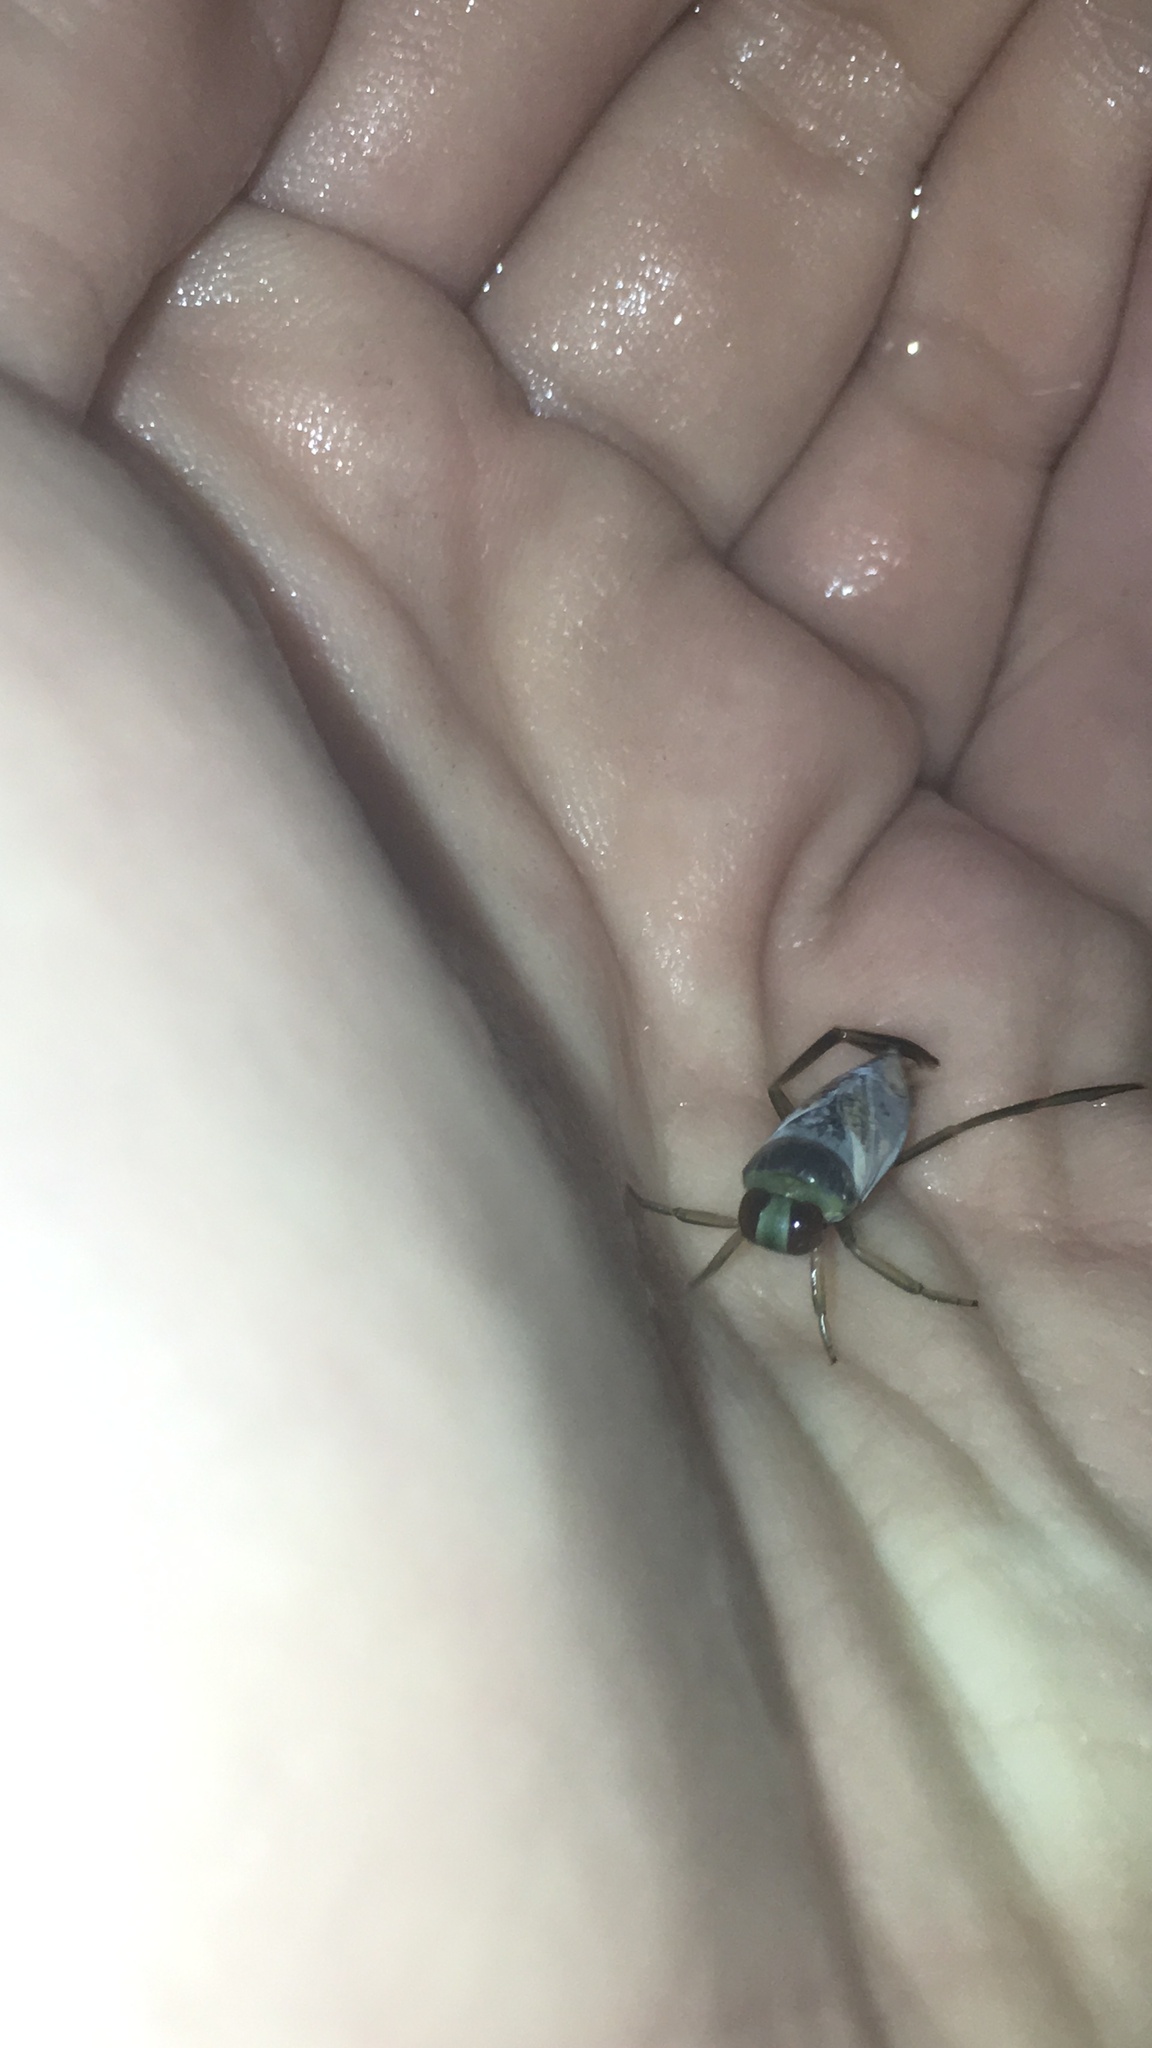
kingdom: Animalia
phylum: Arthropoda
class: Insecta
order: Hemiptera
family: Notonectidae
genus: Notonecta
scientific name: Notonecta
